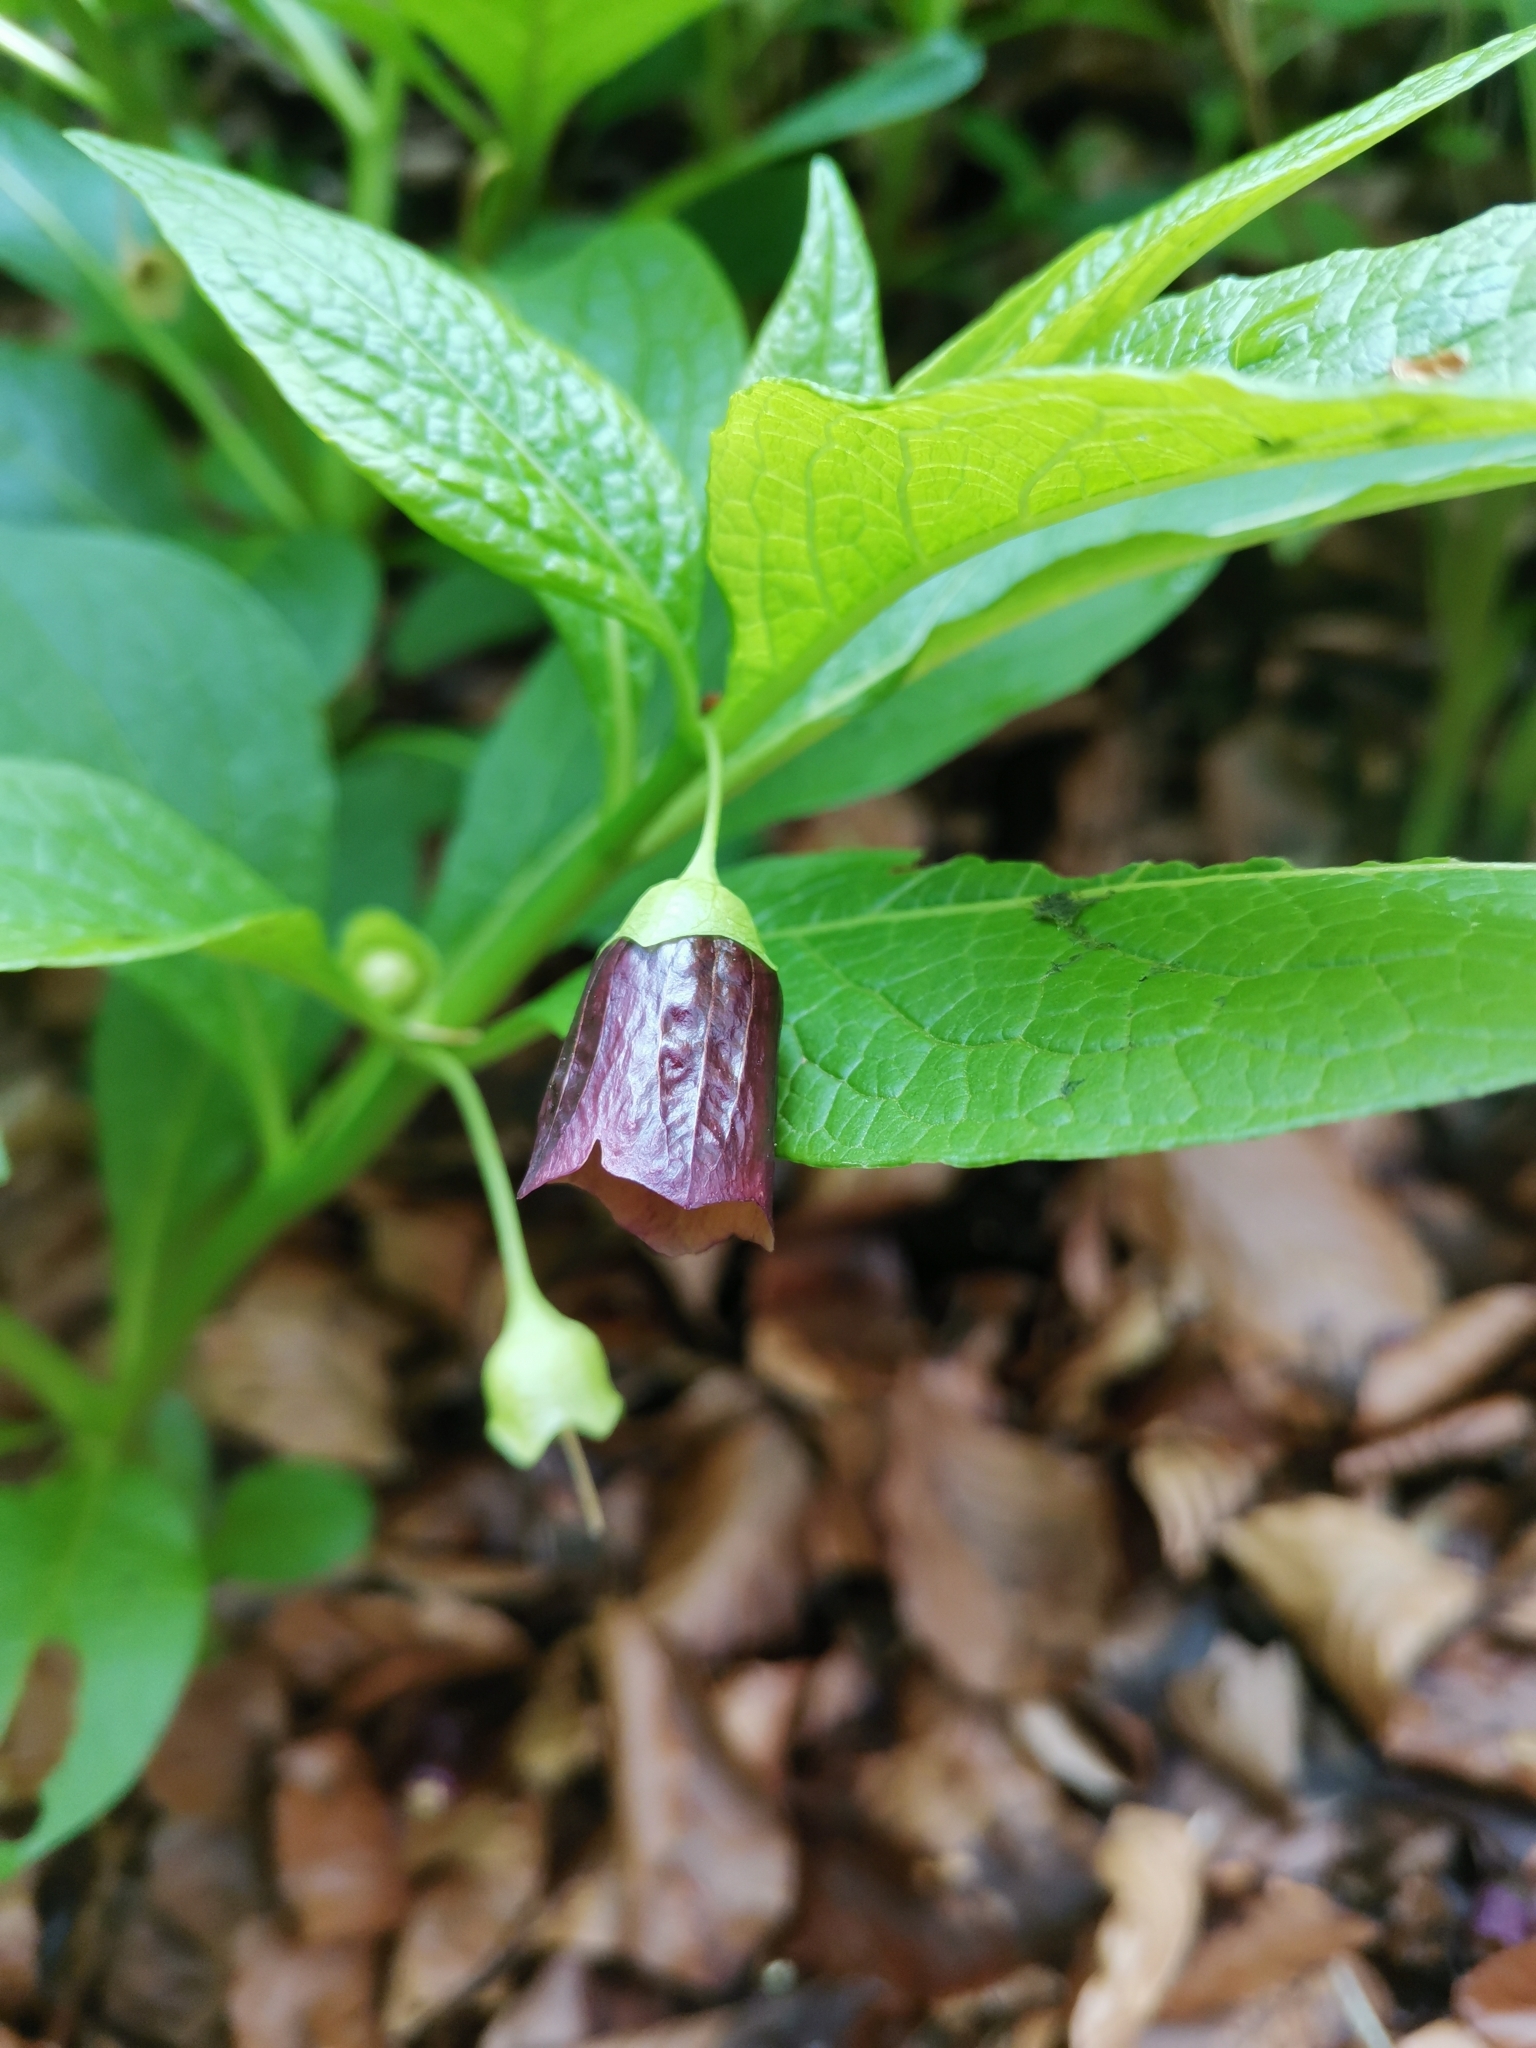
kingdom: Plantae
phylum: Tracheophyta
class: Magnoliopsida
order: Solanales
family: Solanaceae
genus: Scopolia
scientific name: Scopolia carniolica
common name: Scopolia
